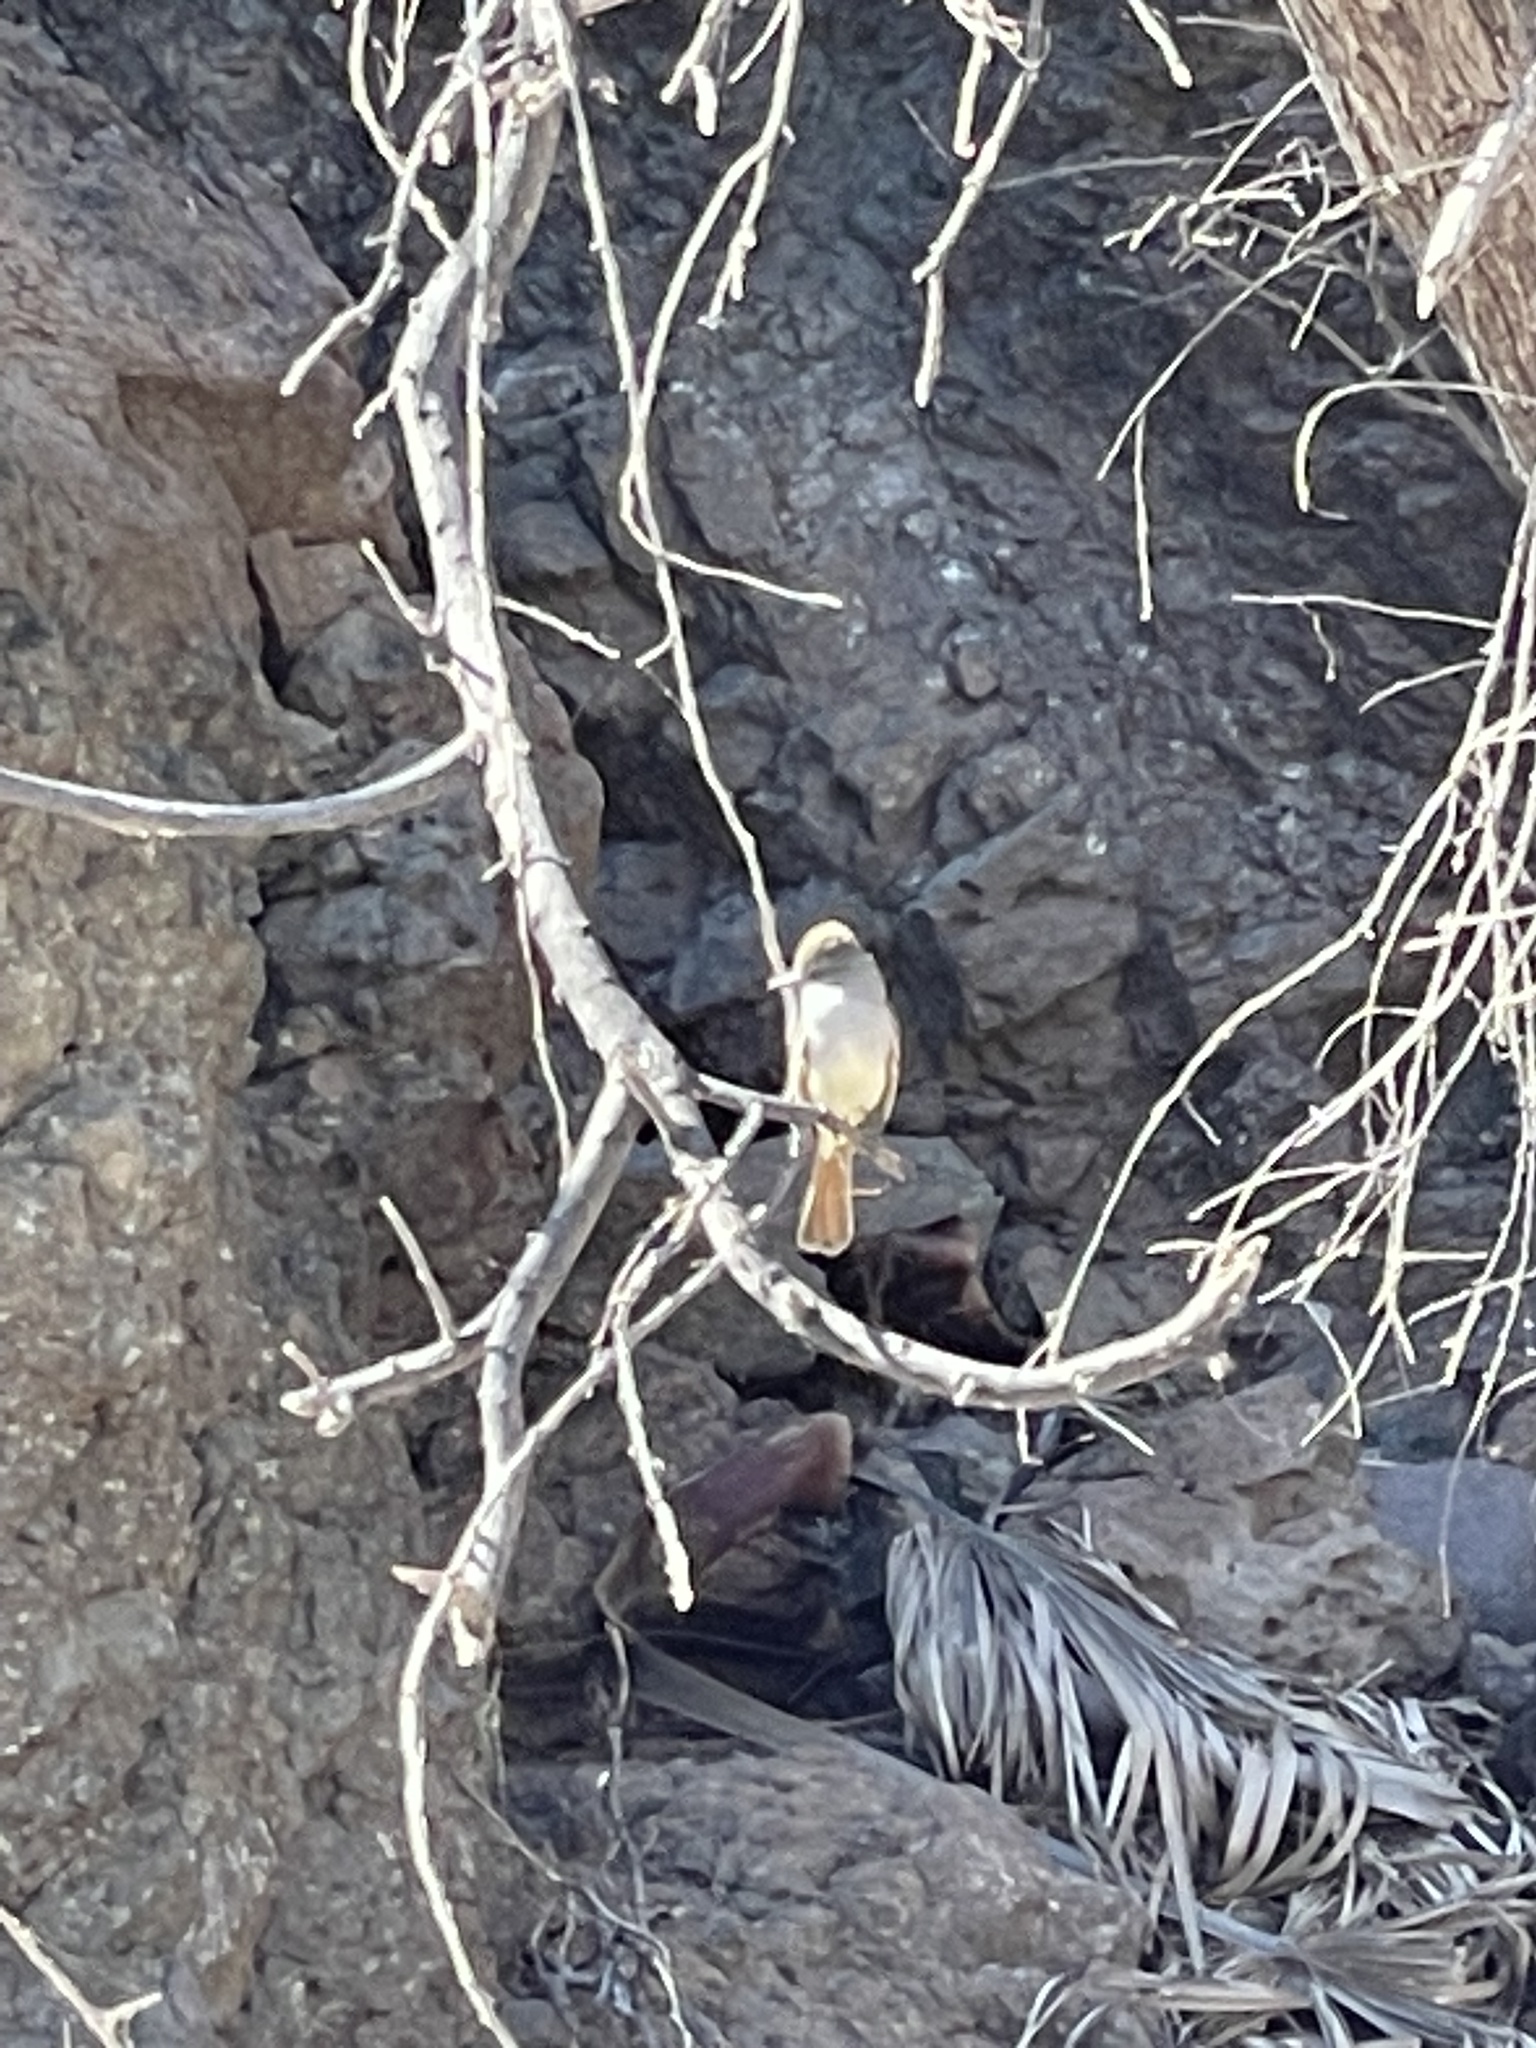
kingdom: Animalia
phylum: Chordata
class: Aves
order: Passeriformes
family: Tyrannidae
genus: Myiarchus
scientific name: Myiarchus cinerascens
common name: Ash-throated flycatcher
